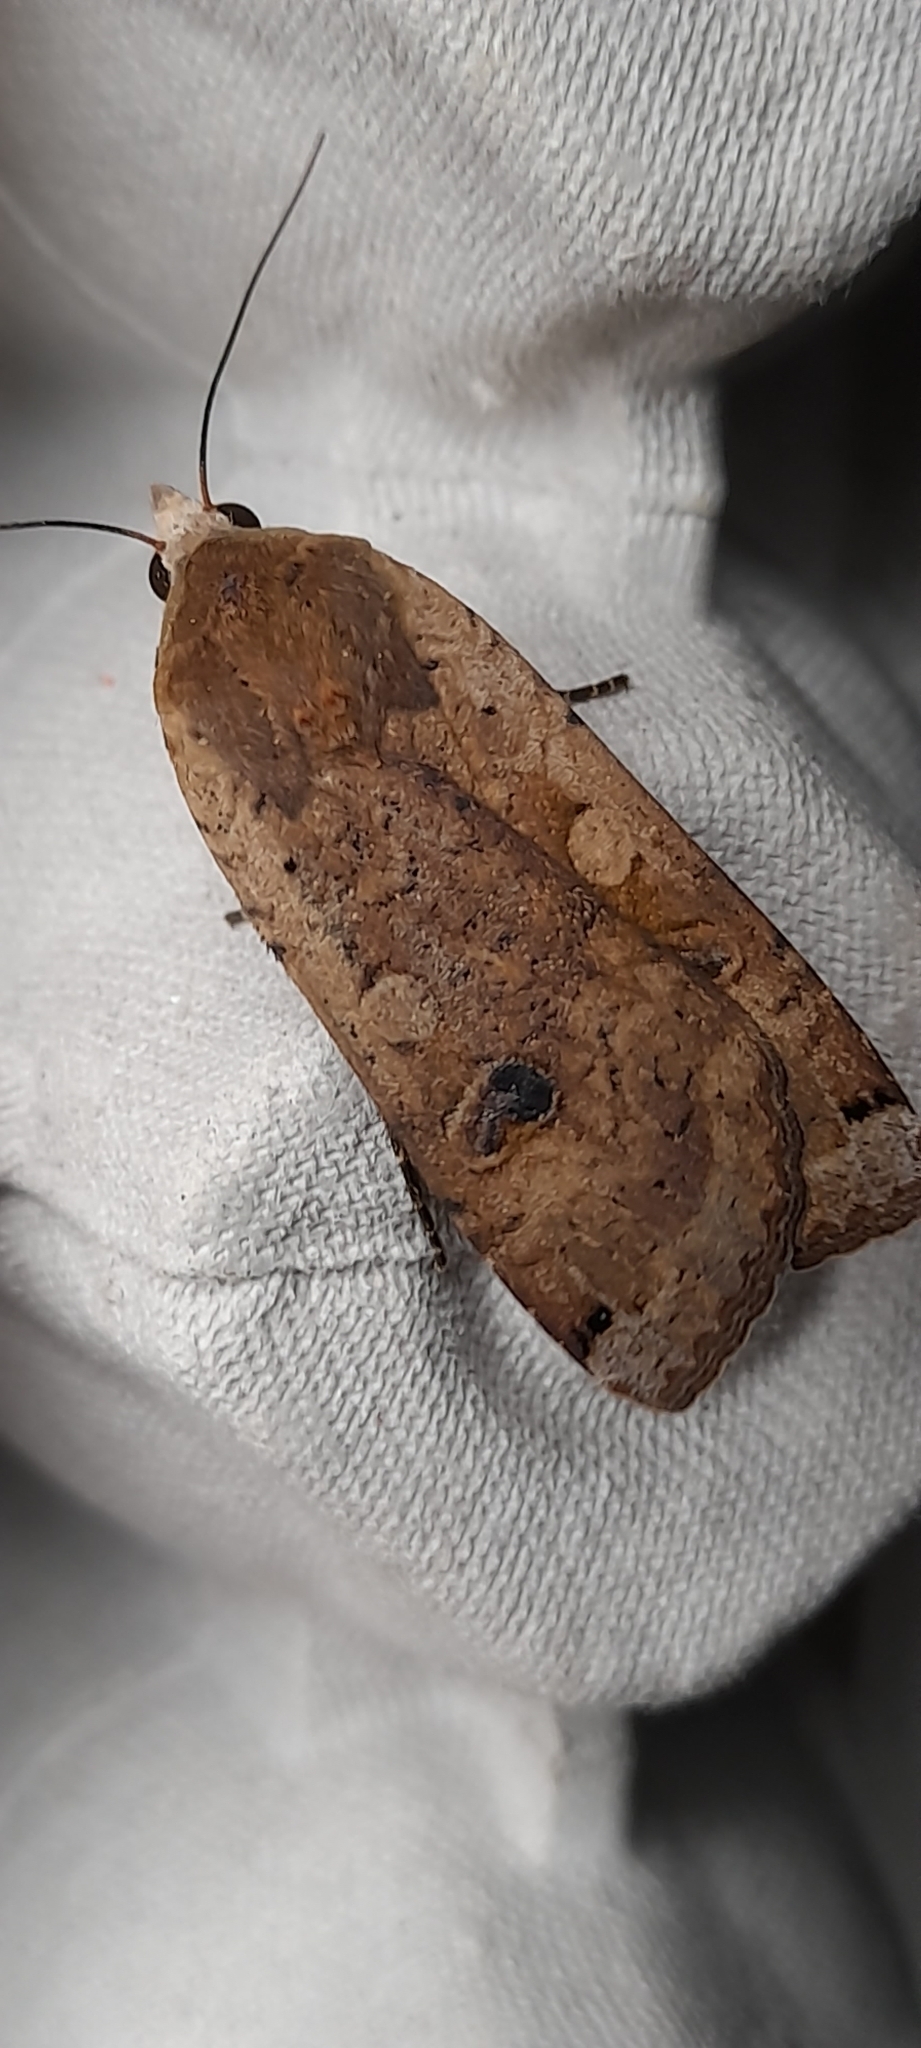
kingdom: Animalia
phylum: Arthropoda
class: Insecta
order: Lepidoptera
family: Noctuidae
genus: Noctua
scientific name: Noctua pronuba
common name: Large yellow underwing
